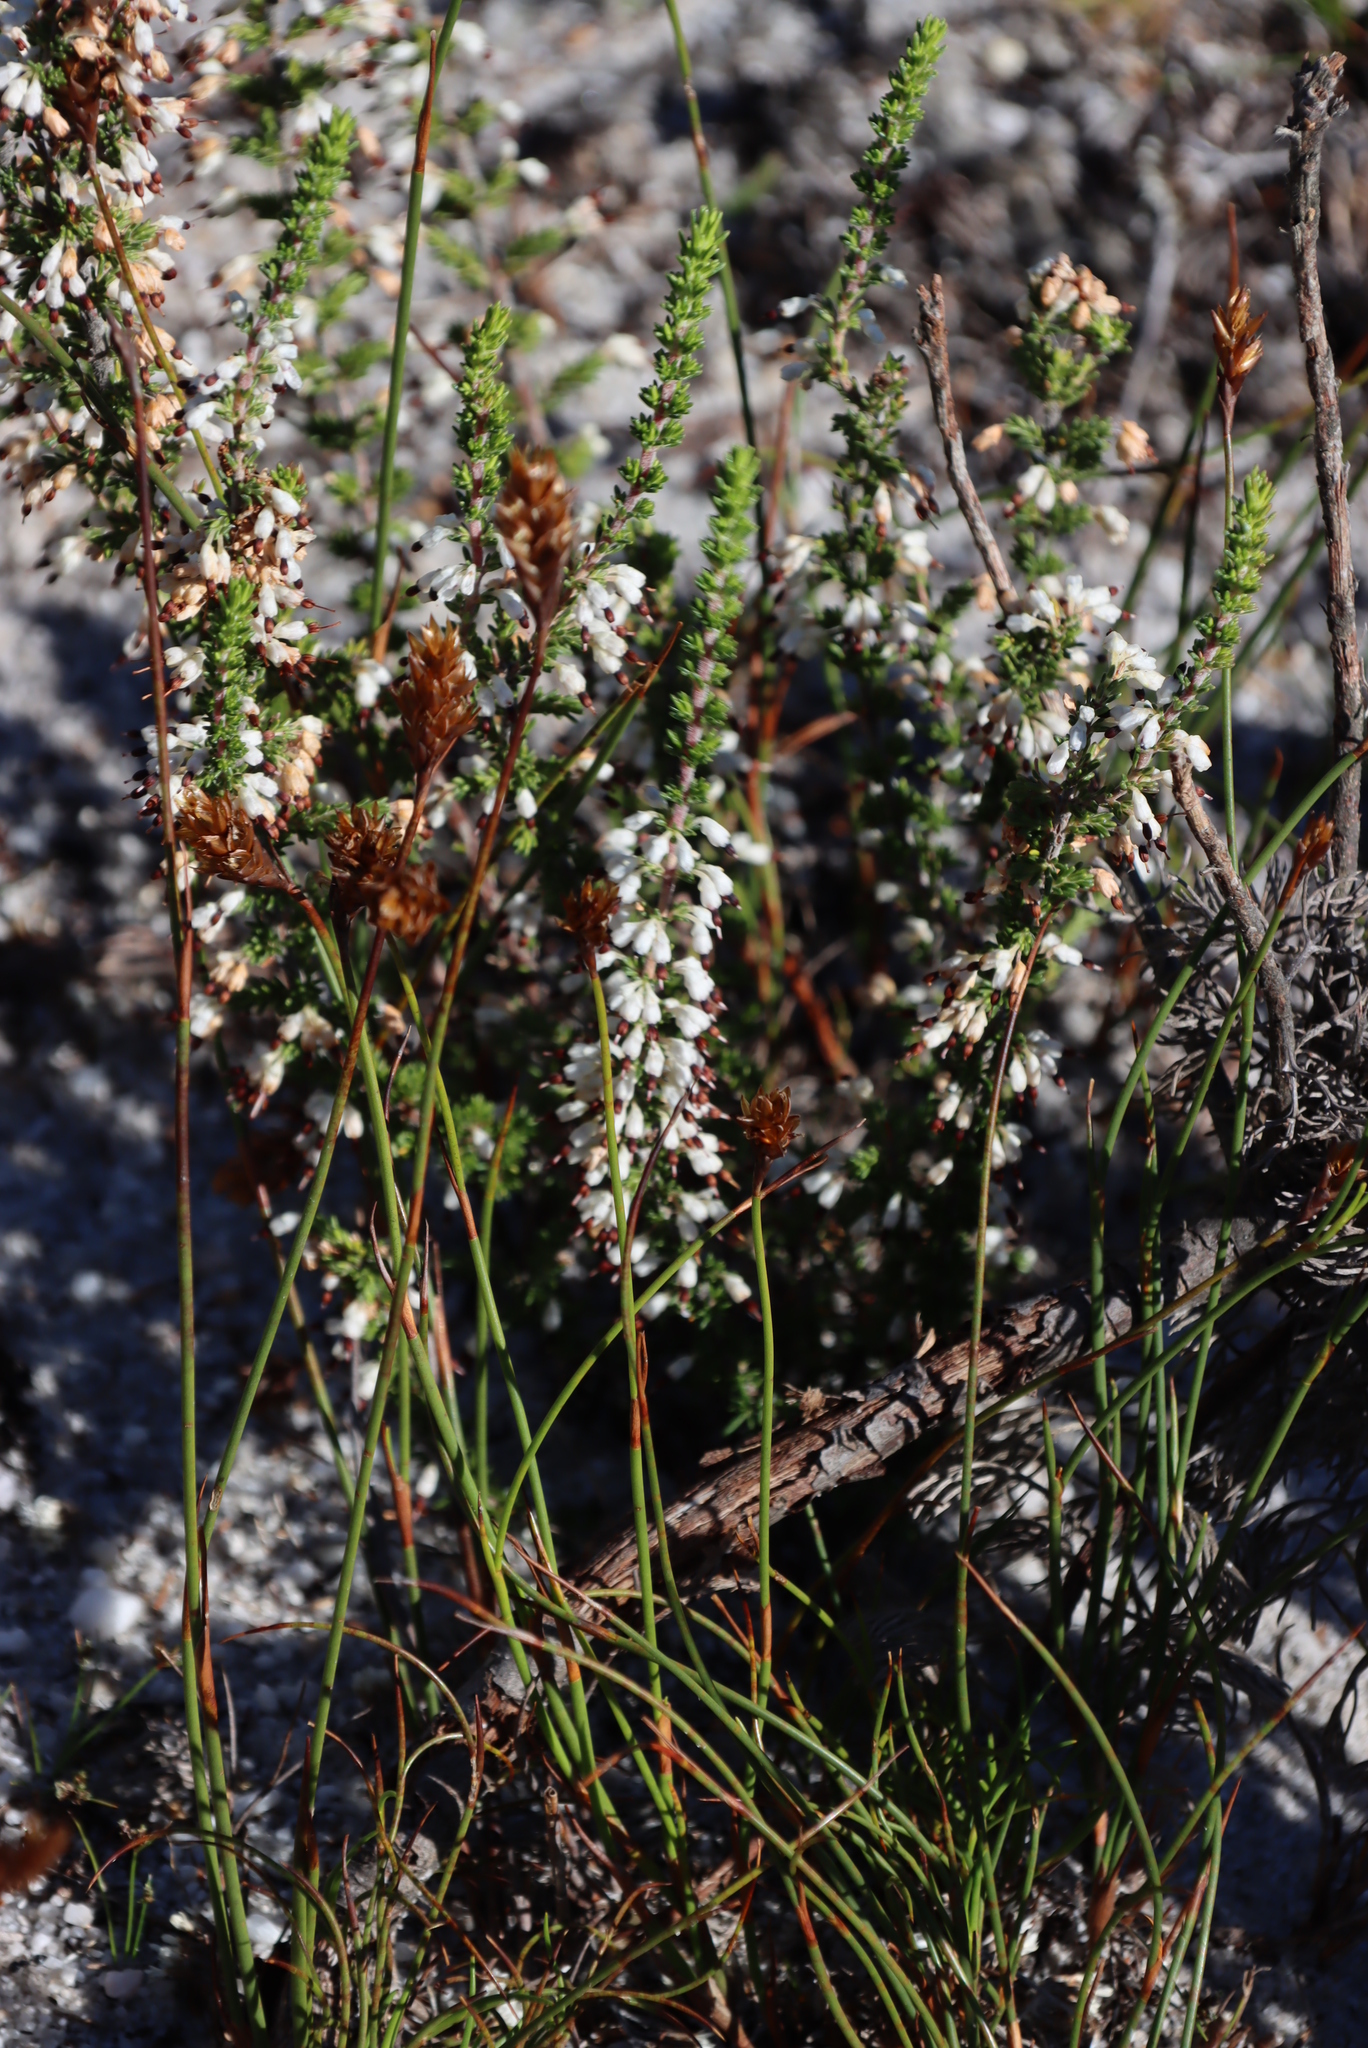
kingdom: Plantae
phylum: Tracheophyta
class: Magnoliopsida
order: Ericales
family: Ericaceae
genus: Erica
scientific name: Erica imbricata
